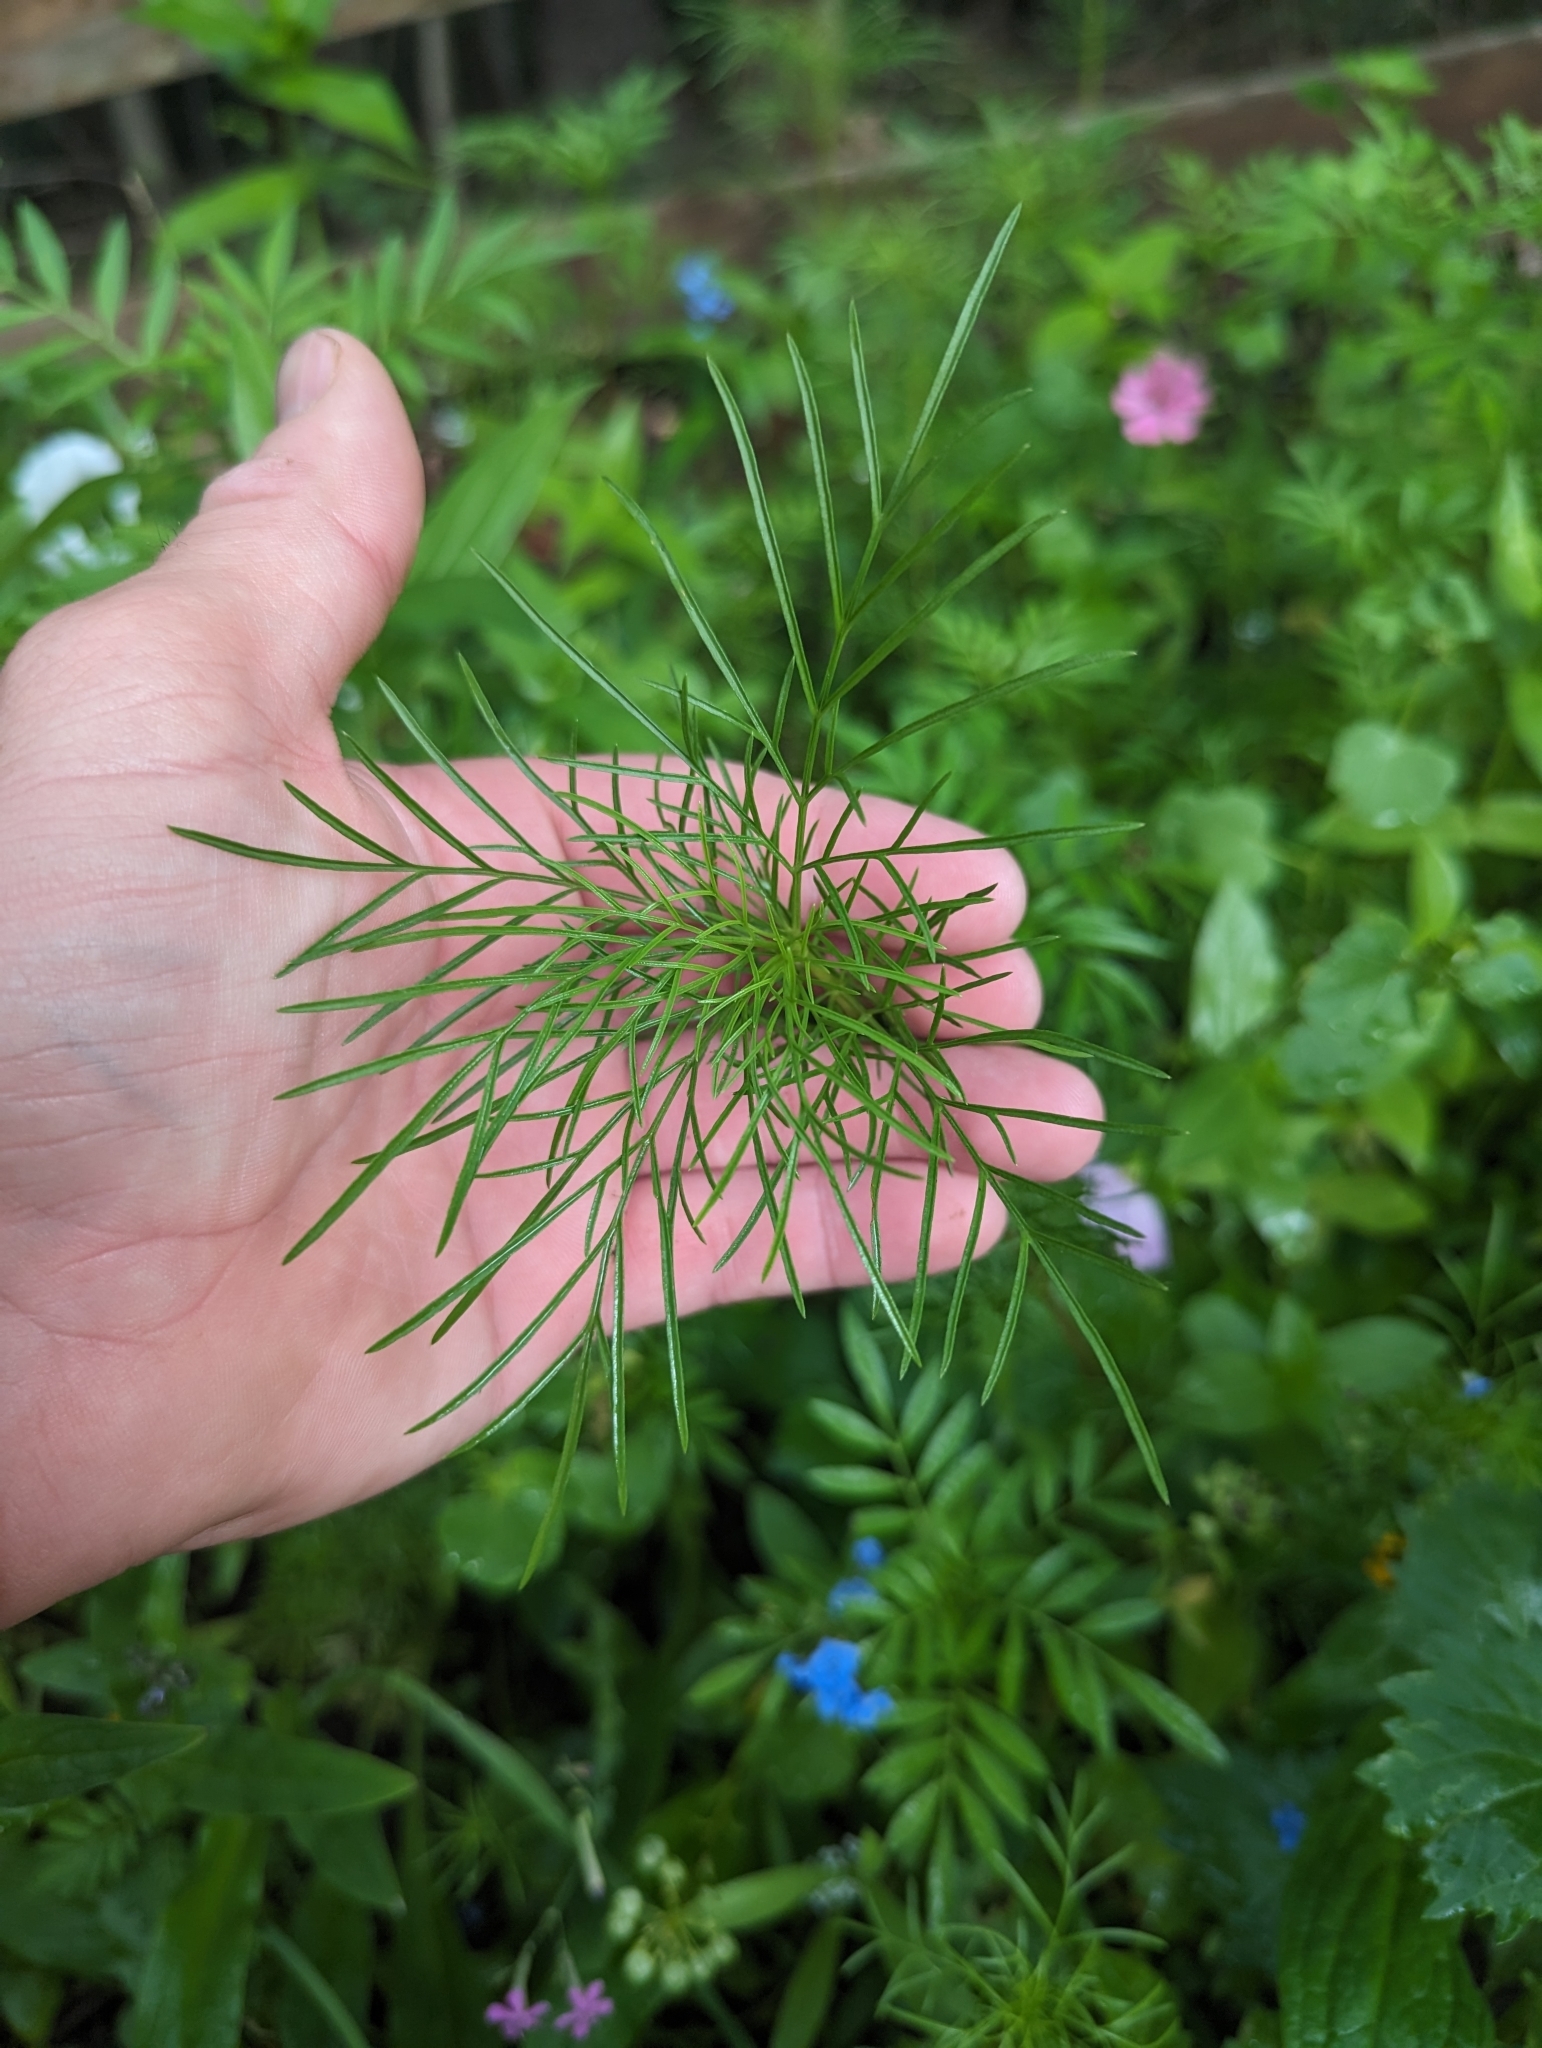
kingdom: Plantae
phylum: Tracheophyta
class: Magnoliopsida
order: Asterales
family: Asteraceae
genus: Cosmos
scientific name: Cosmos bipinnatus
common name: Garden cosmos
